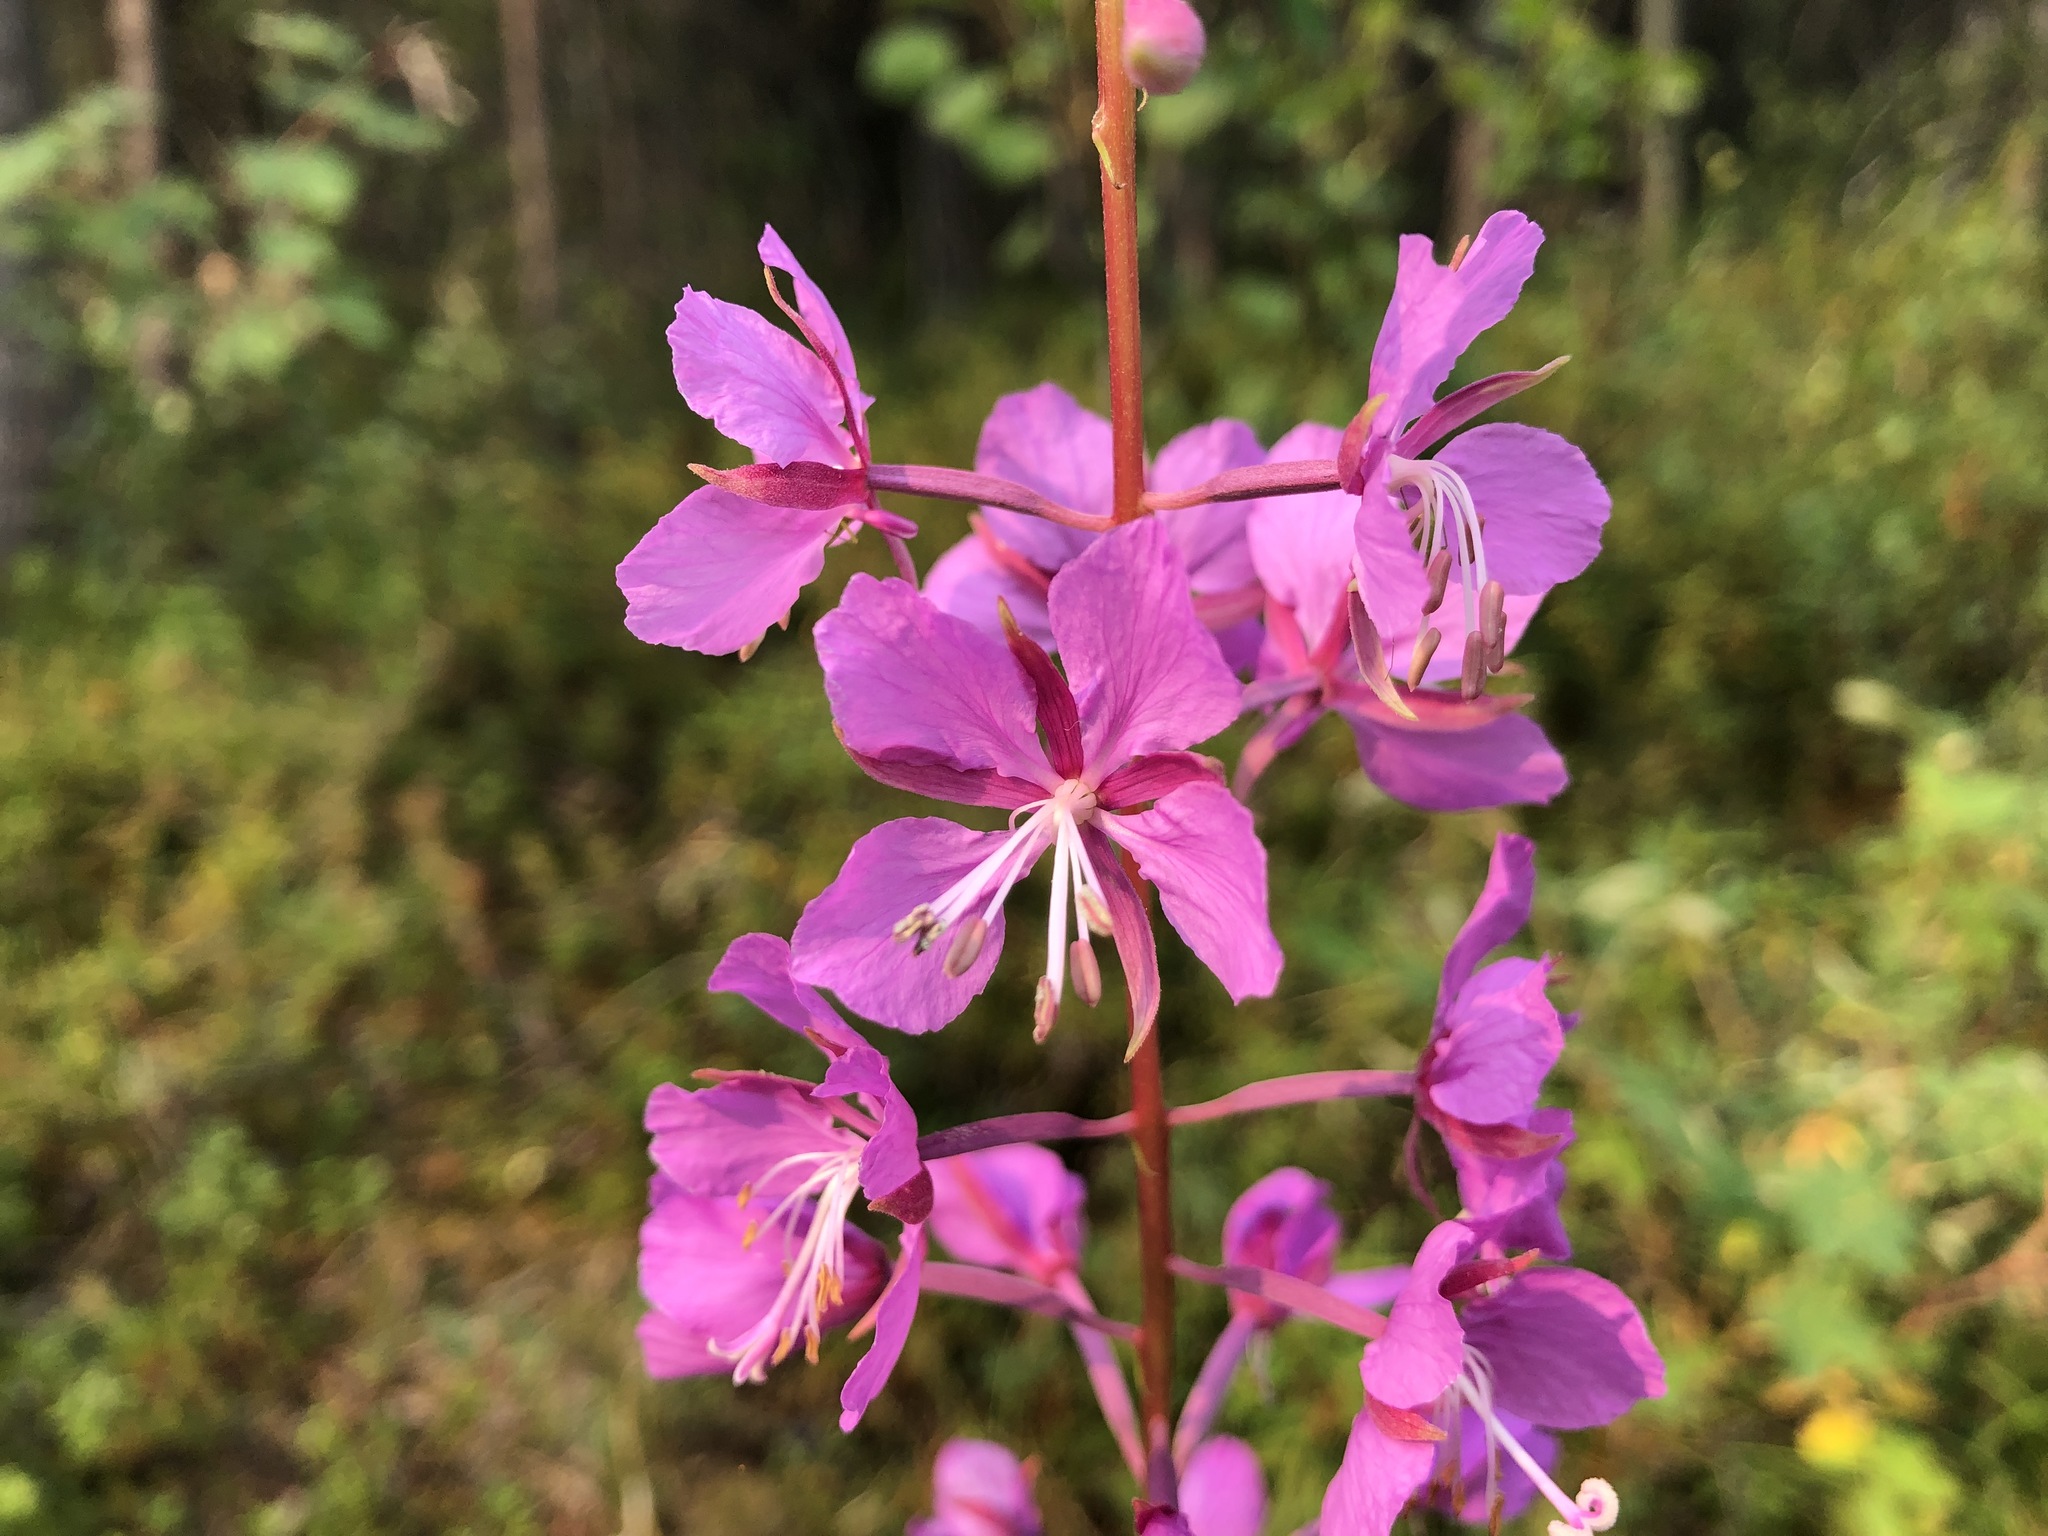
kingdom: Plantae
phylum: Tracheophyta
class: Magnoliopsida
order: Myrtales
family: Onagraceae
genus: Chamaenerion
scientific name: Chamaenerion angustifolium
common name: Fireweed
